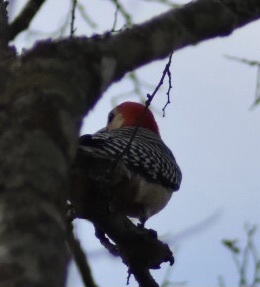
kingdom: Animalia
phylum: Chordata
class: Aves
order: Piciformes
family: Picidae
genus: Melanerpes
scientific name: Melanerpes carolinus
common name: Red-bellied woodpecker
